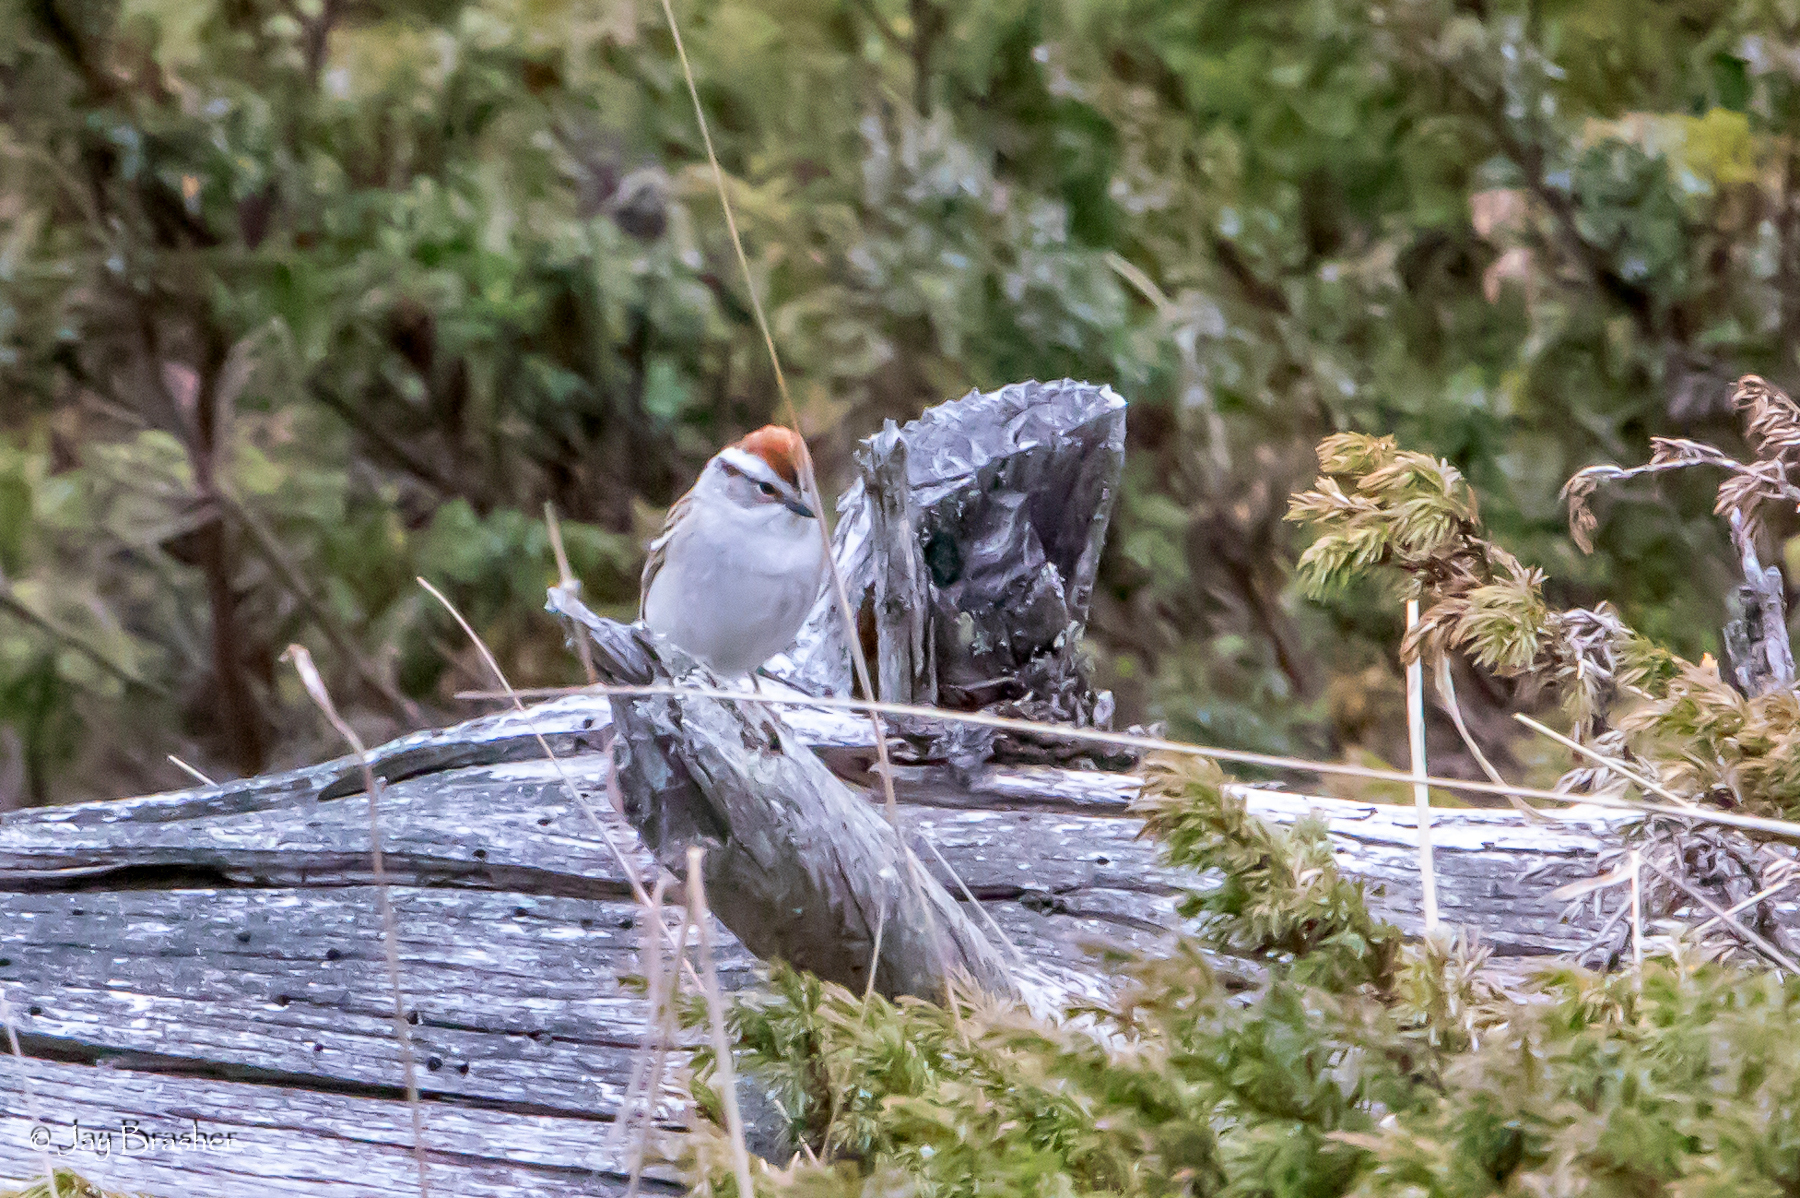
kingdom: Animalia
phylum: Chordata
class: Aves
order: Passeriformes
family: Passerellidae
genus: Spizella
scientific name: Spizella passerina
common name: Chipping sparrow
